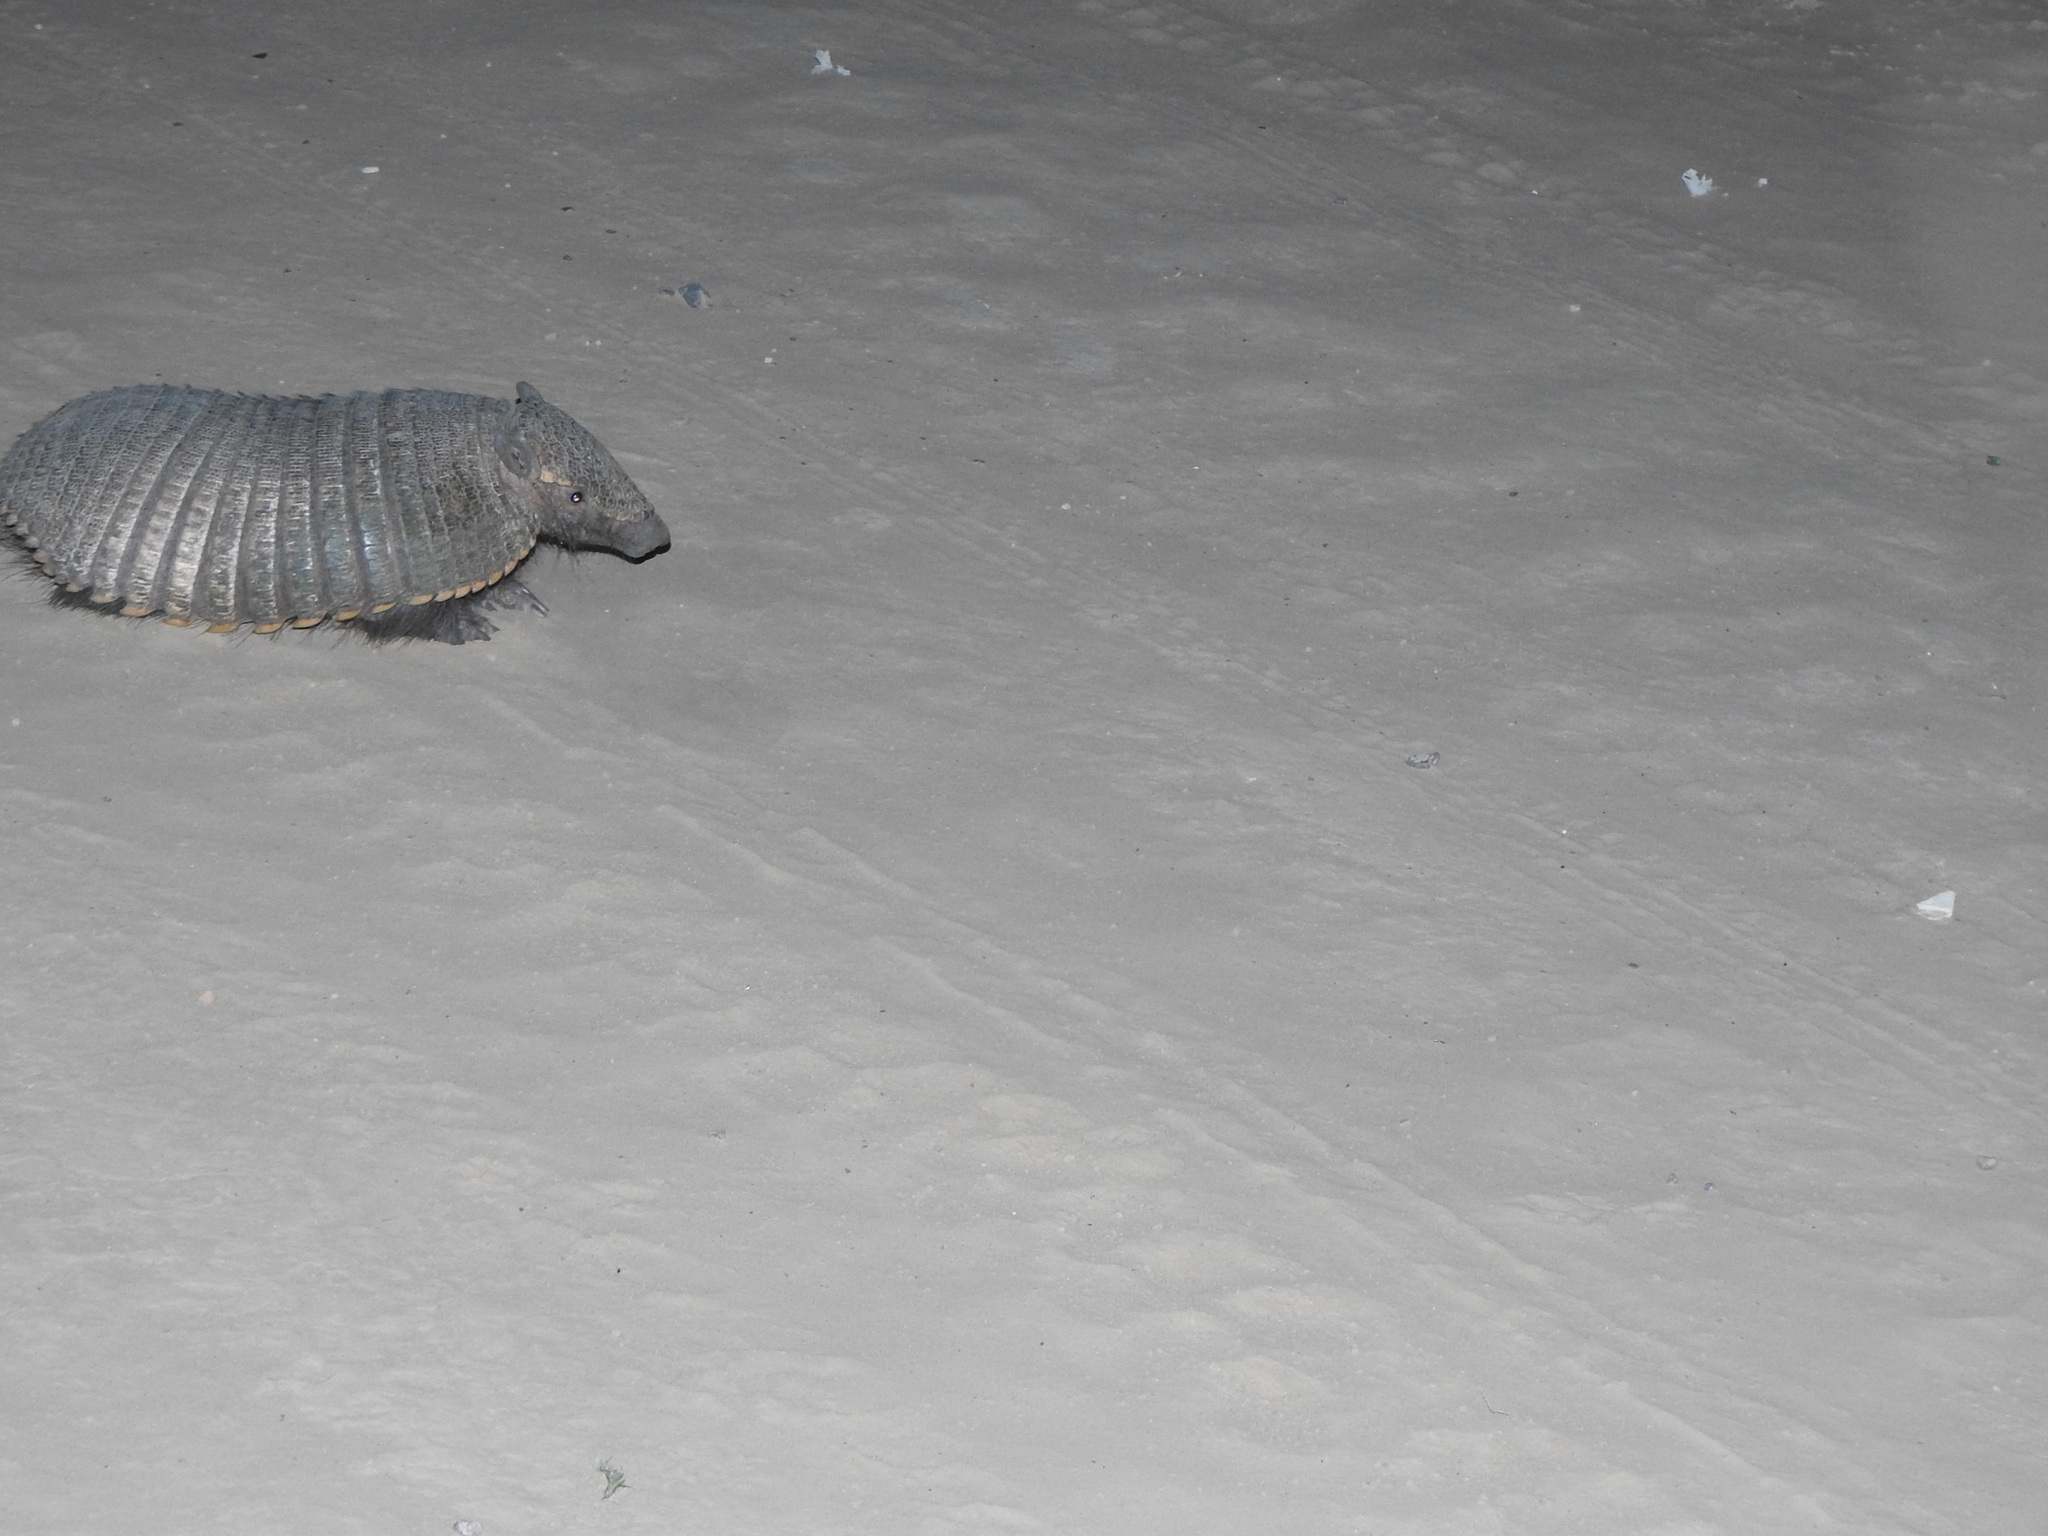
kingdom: Animalia
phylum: Chordata
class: Mammalia
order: Cingulata
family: Dasypodidae
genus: Chaetophractus
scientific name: Chaetophractus villosus
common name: Big hairy armadillo
